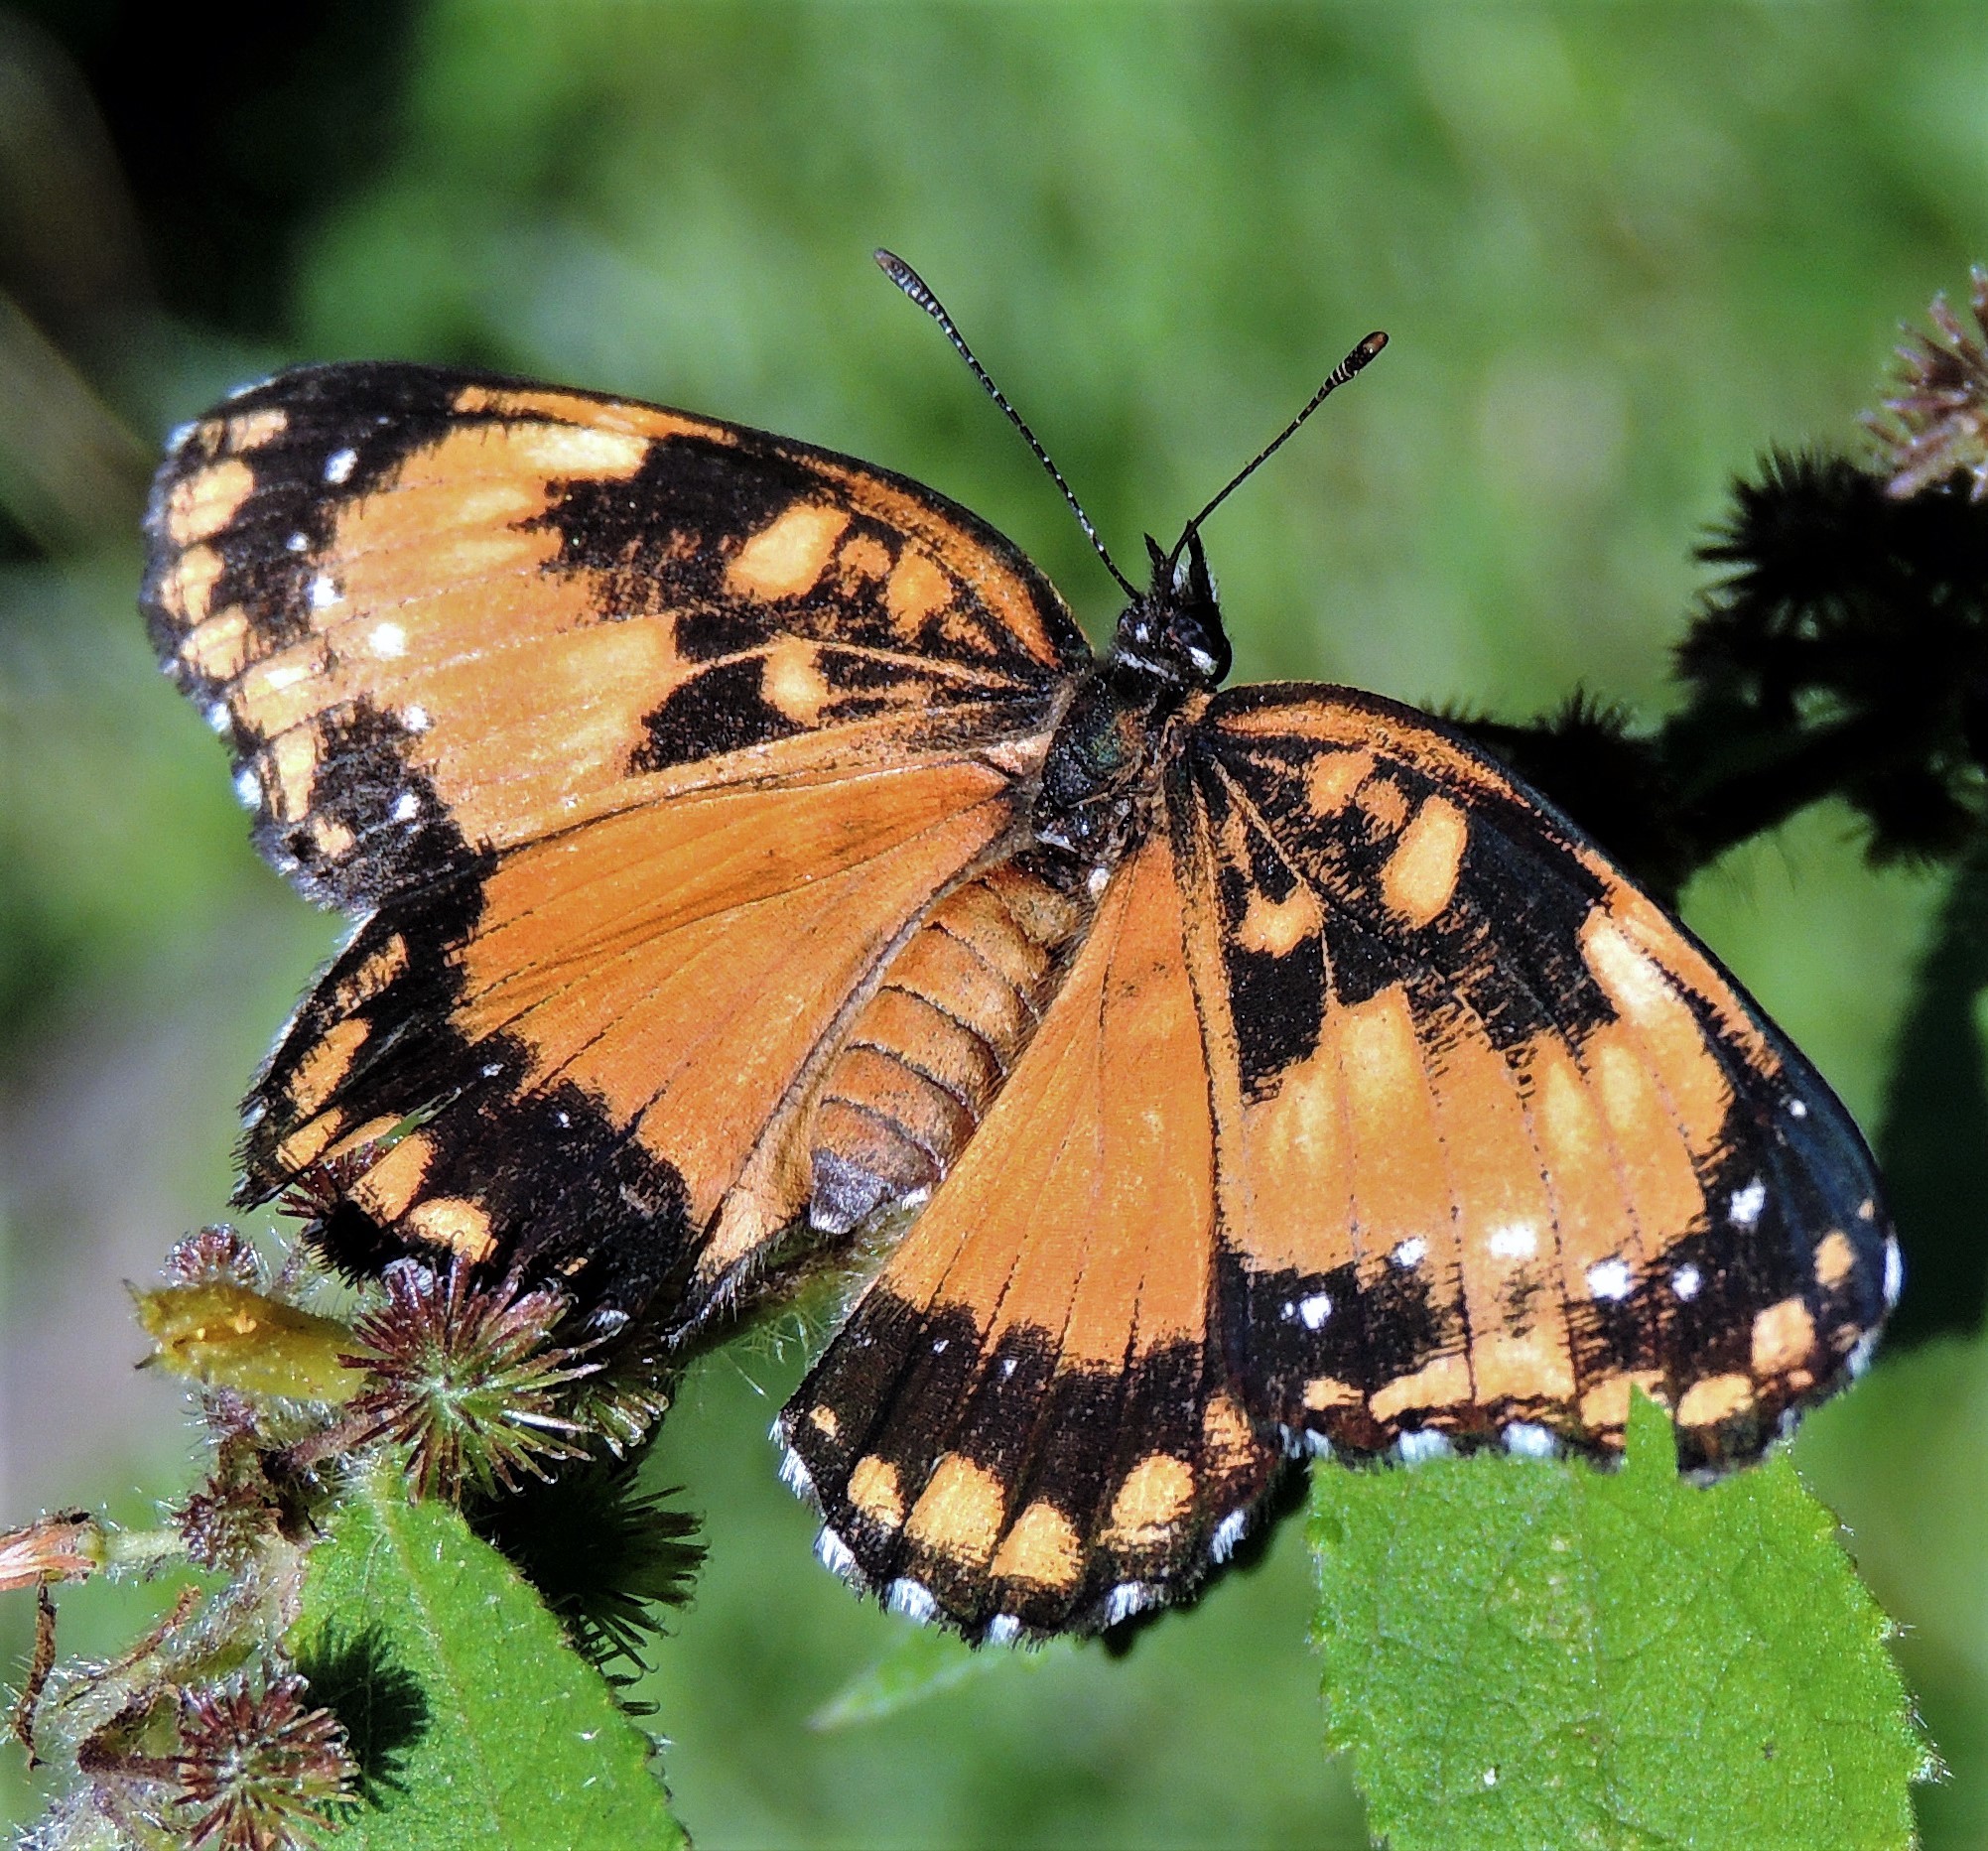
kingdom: Animalia
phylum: Arthropoda
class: Insecta
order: Lepidoptera
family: Nymphalidae
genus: Chlosyne
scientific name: Chlosyne lacinia
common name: Bordered patch
